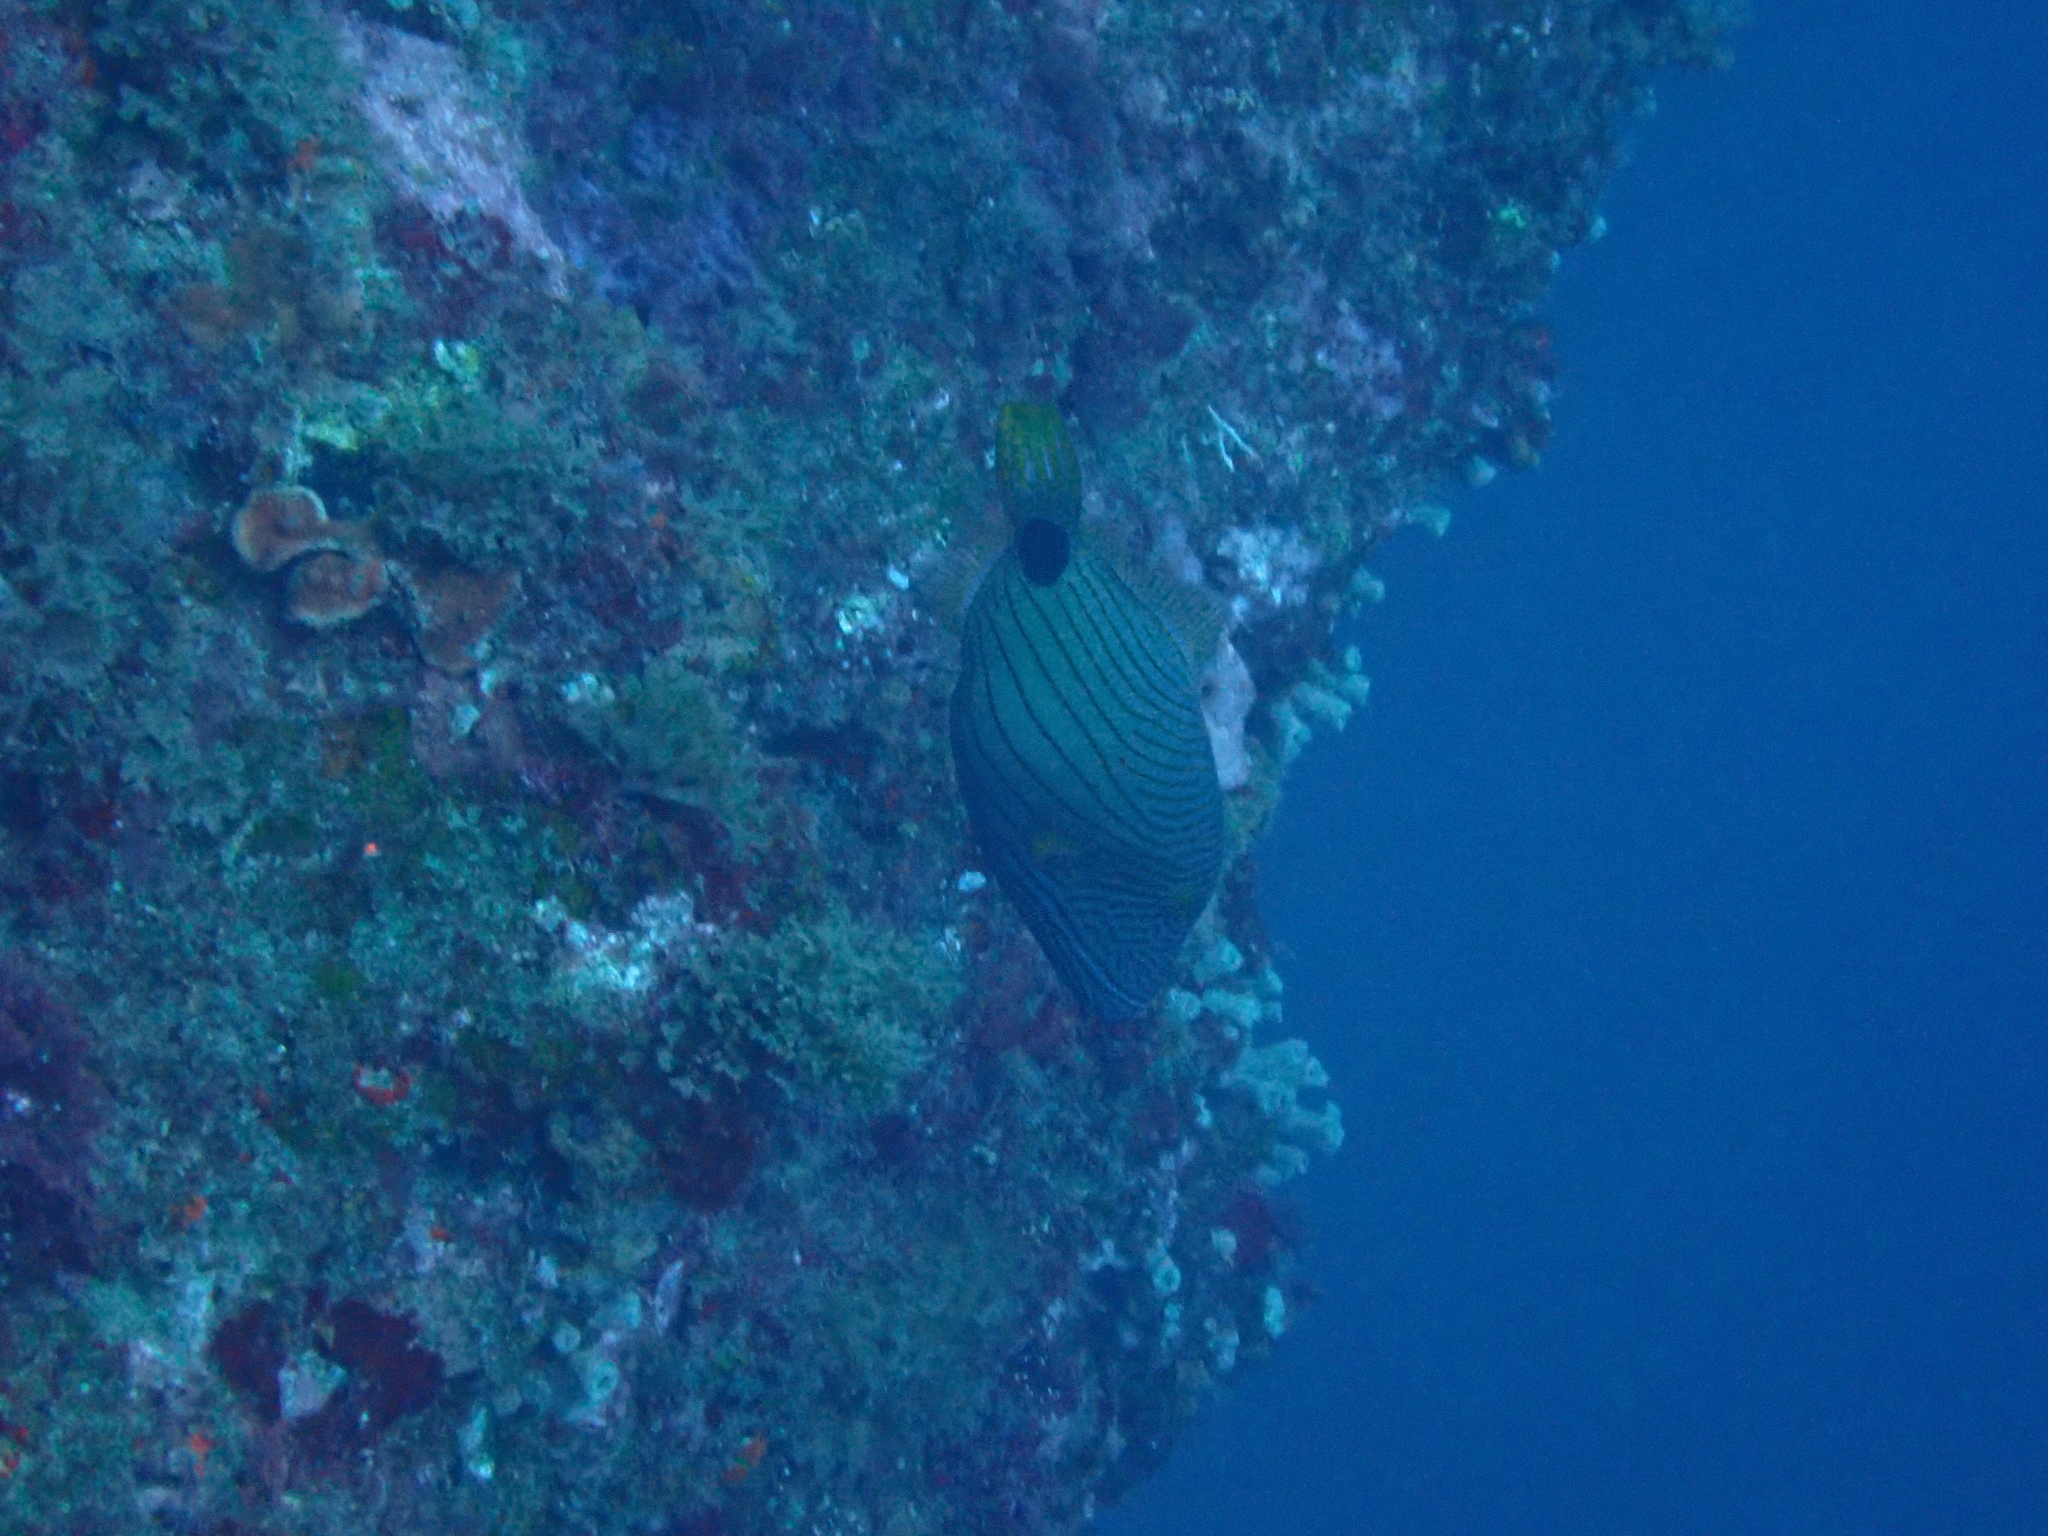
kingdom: Animalia
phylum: Chordata
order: Tetraodontiformes
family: Balistidae
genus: Balistapus
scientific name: Balistapus undulatus
